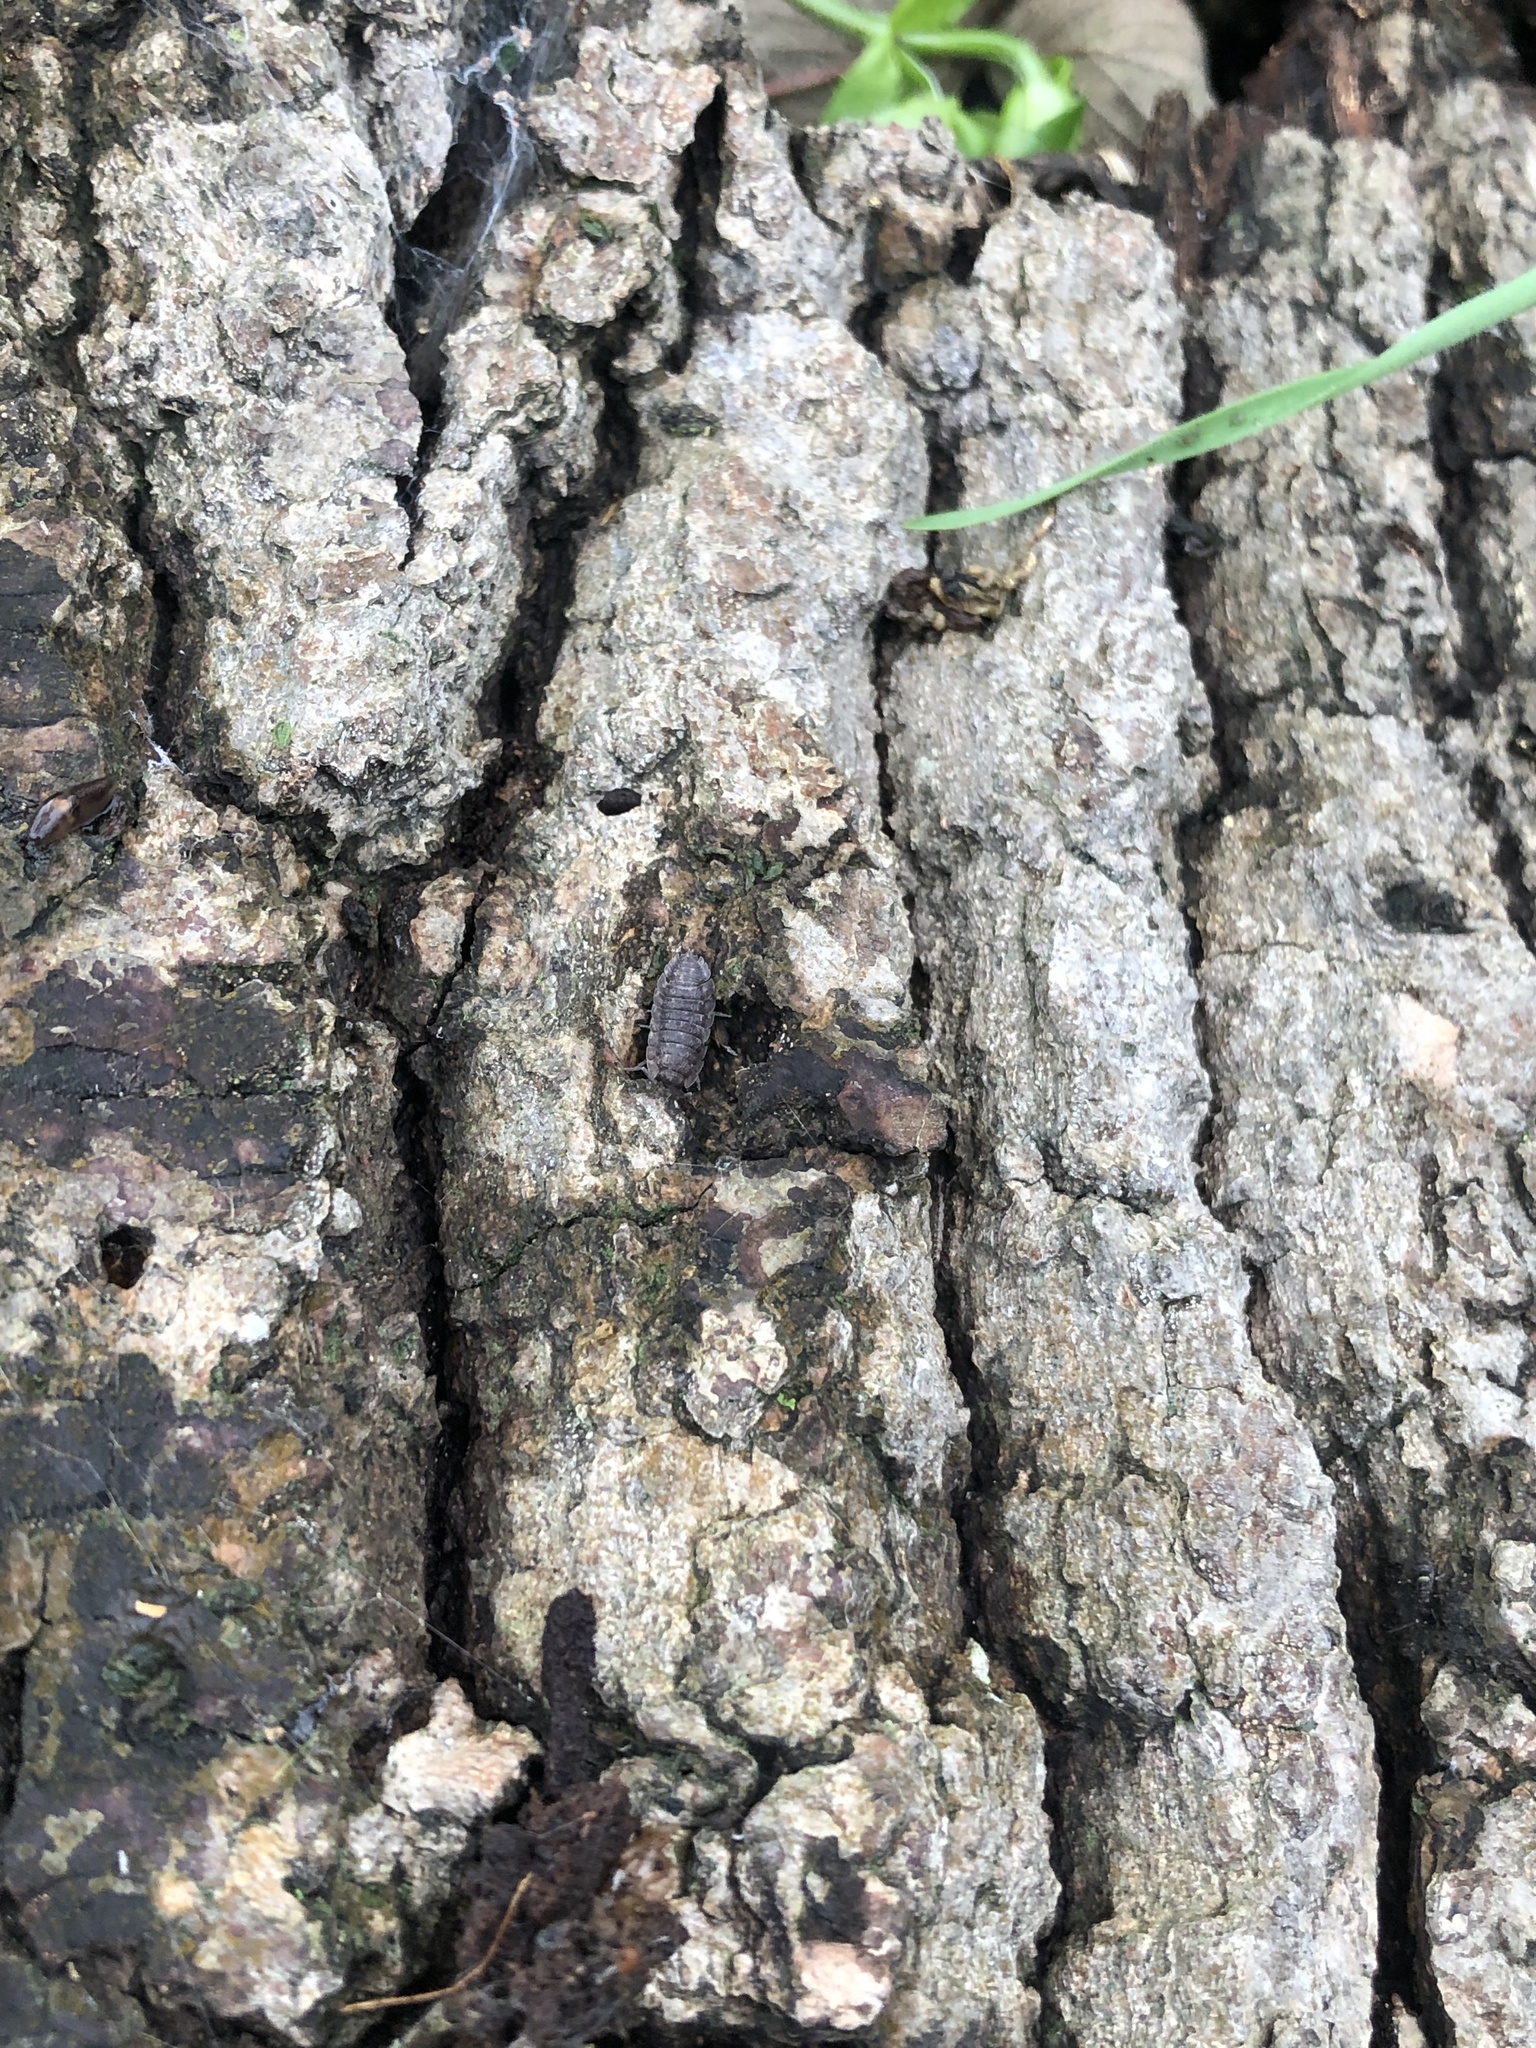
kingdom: Animalia
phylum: Arthropoda
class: Malacostraca
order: Isopoda
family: Porcellionidae
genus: Porcellio
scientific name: Porcellio scaber
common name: Common rough woodlouse
